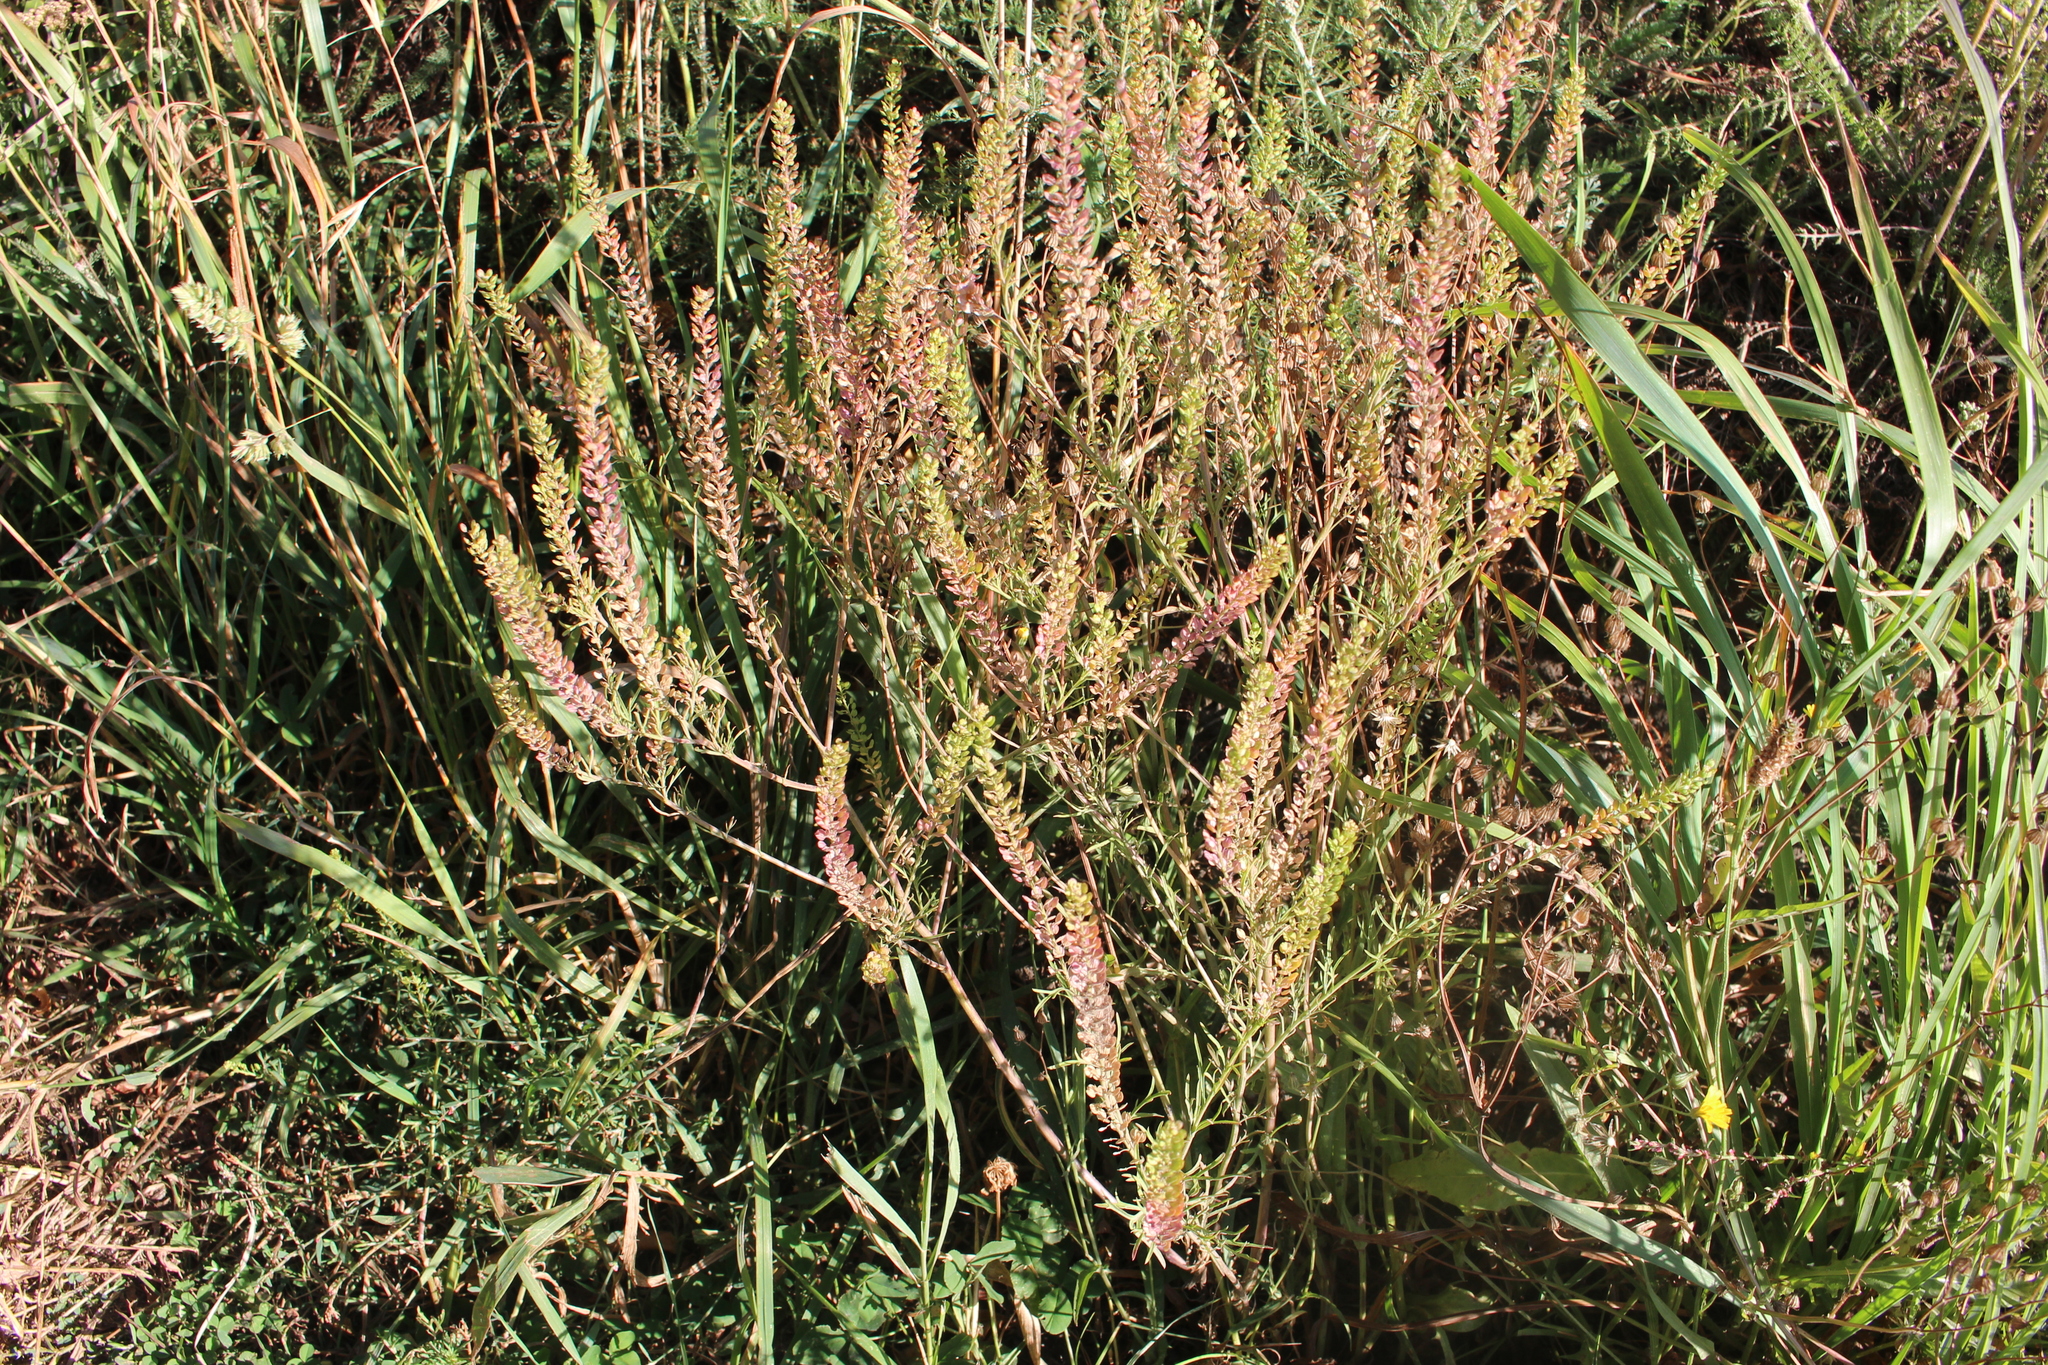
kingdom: Plantae
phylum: Tracheophyta
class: Magnoliopsida
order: Brassicales
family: Brassicaceae
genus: Lepidium
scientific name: Lepidium bonariense
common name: Argentine pepperwort
